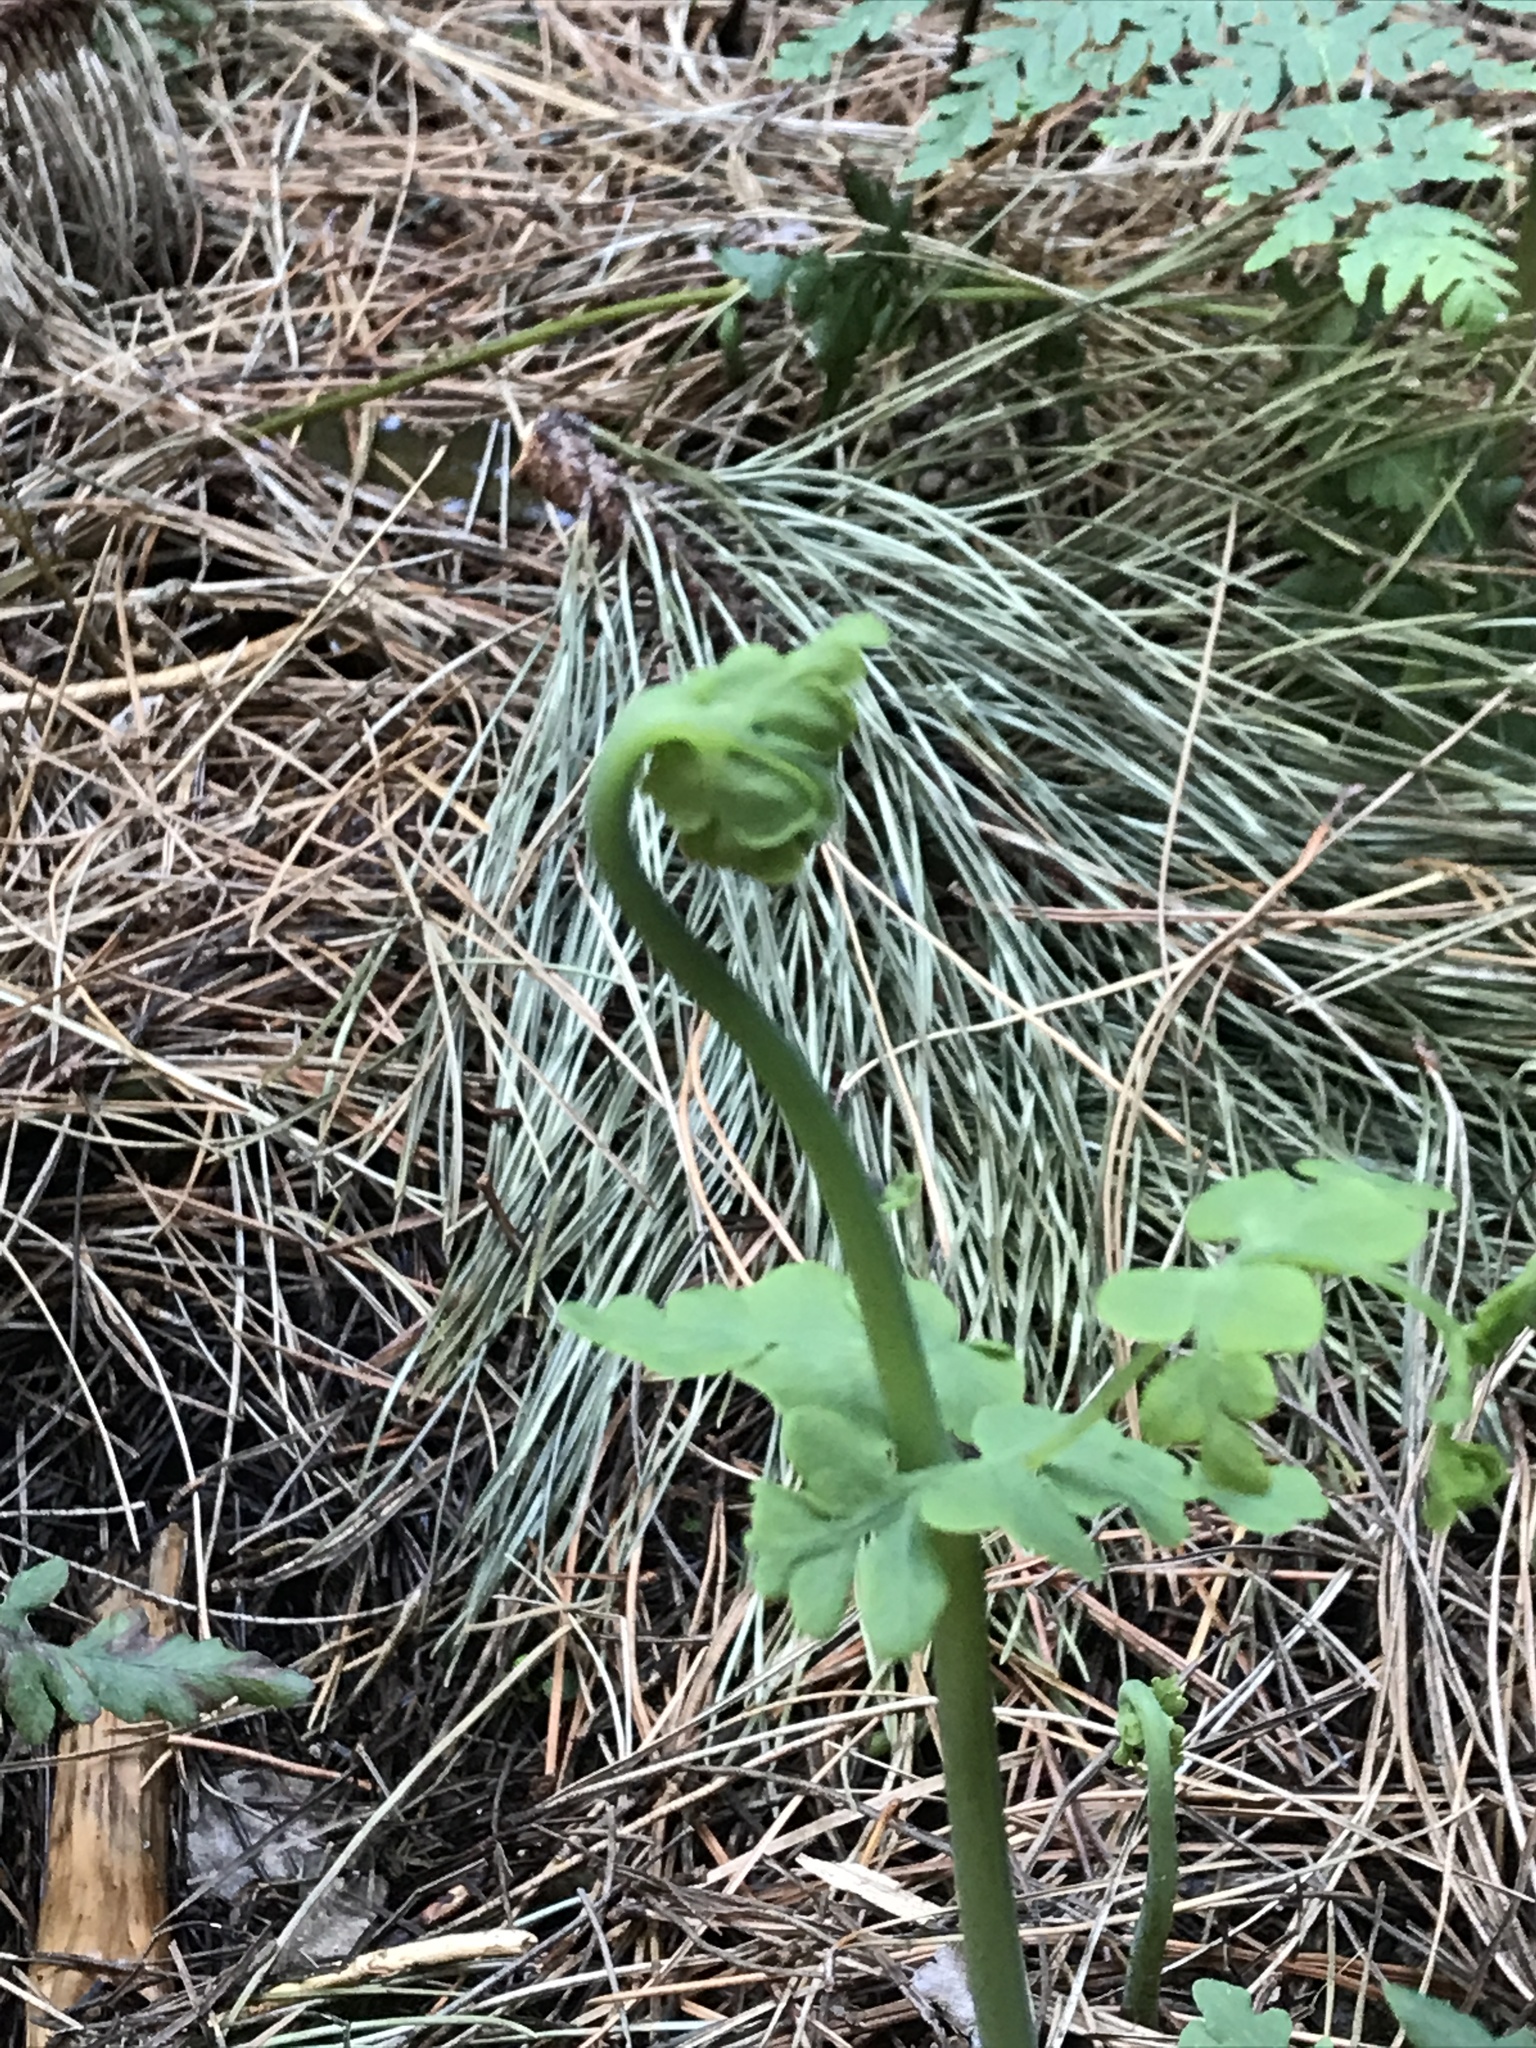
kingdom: Plantae
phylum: Tracheophyta
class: Polypodiopsida
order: Polypodiales
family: Dennstaedtiaceae
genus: Histiopteris
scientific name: Histiopteris incisa
